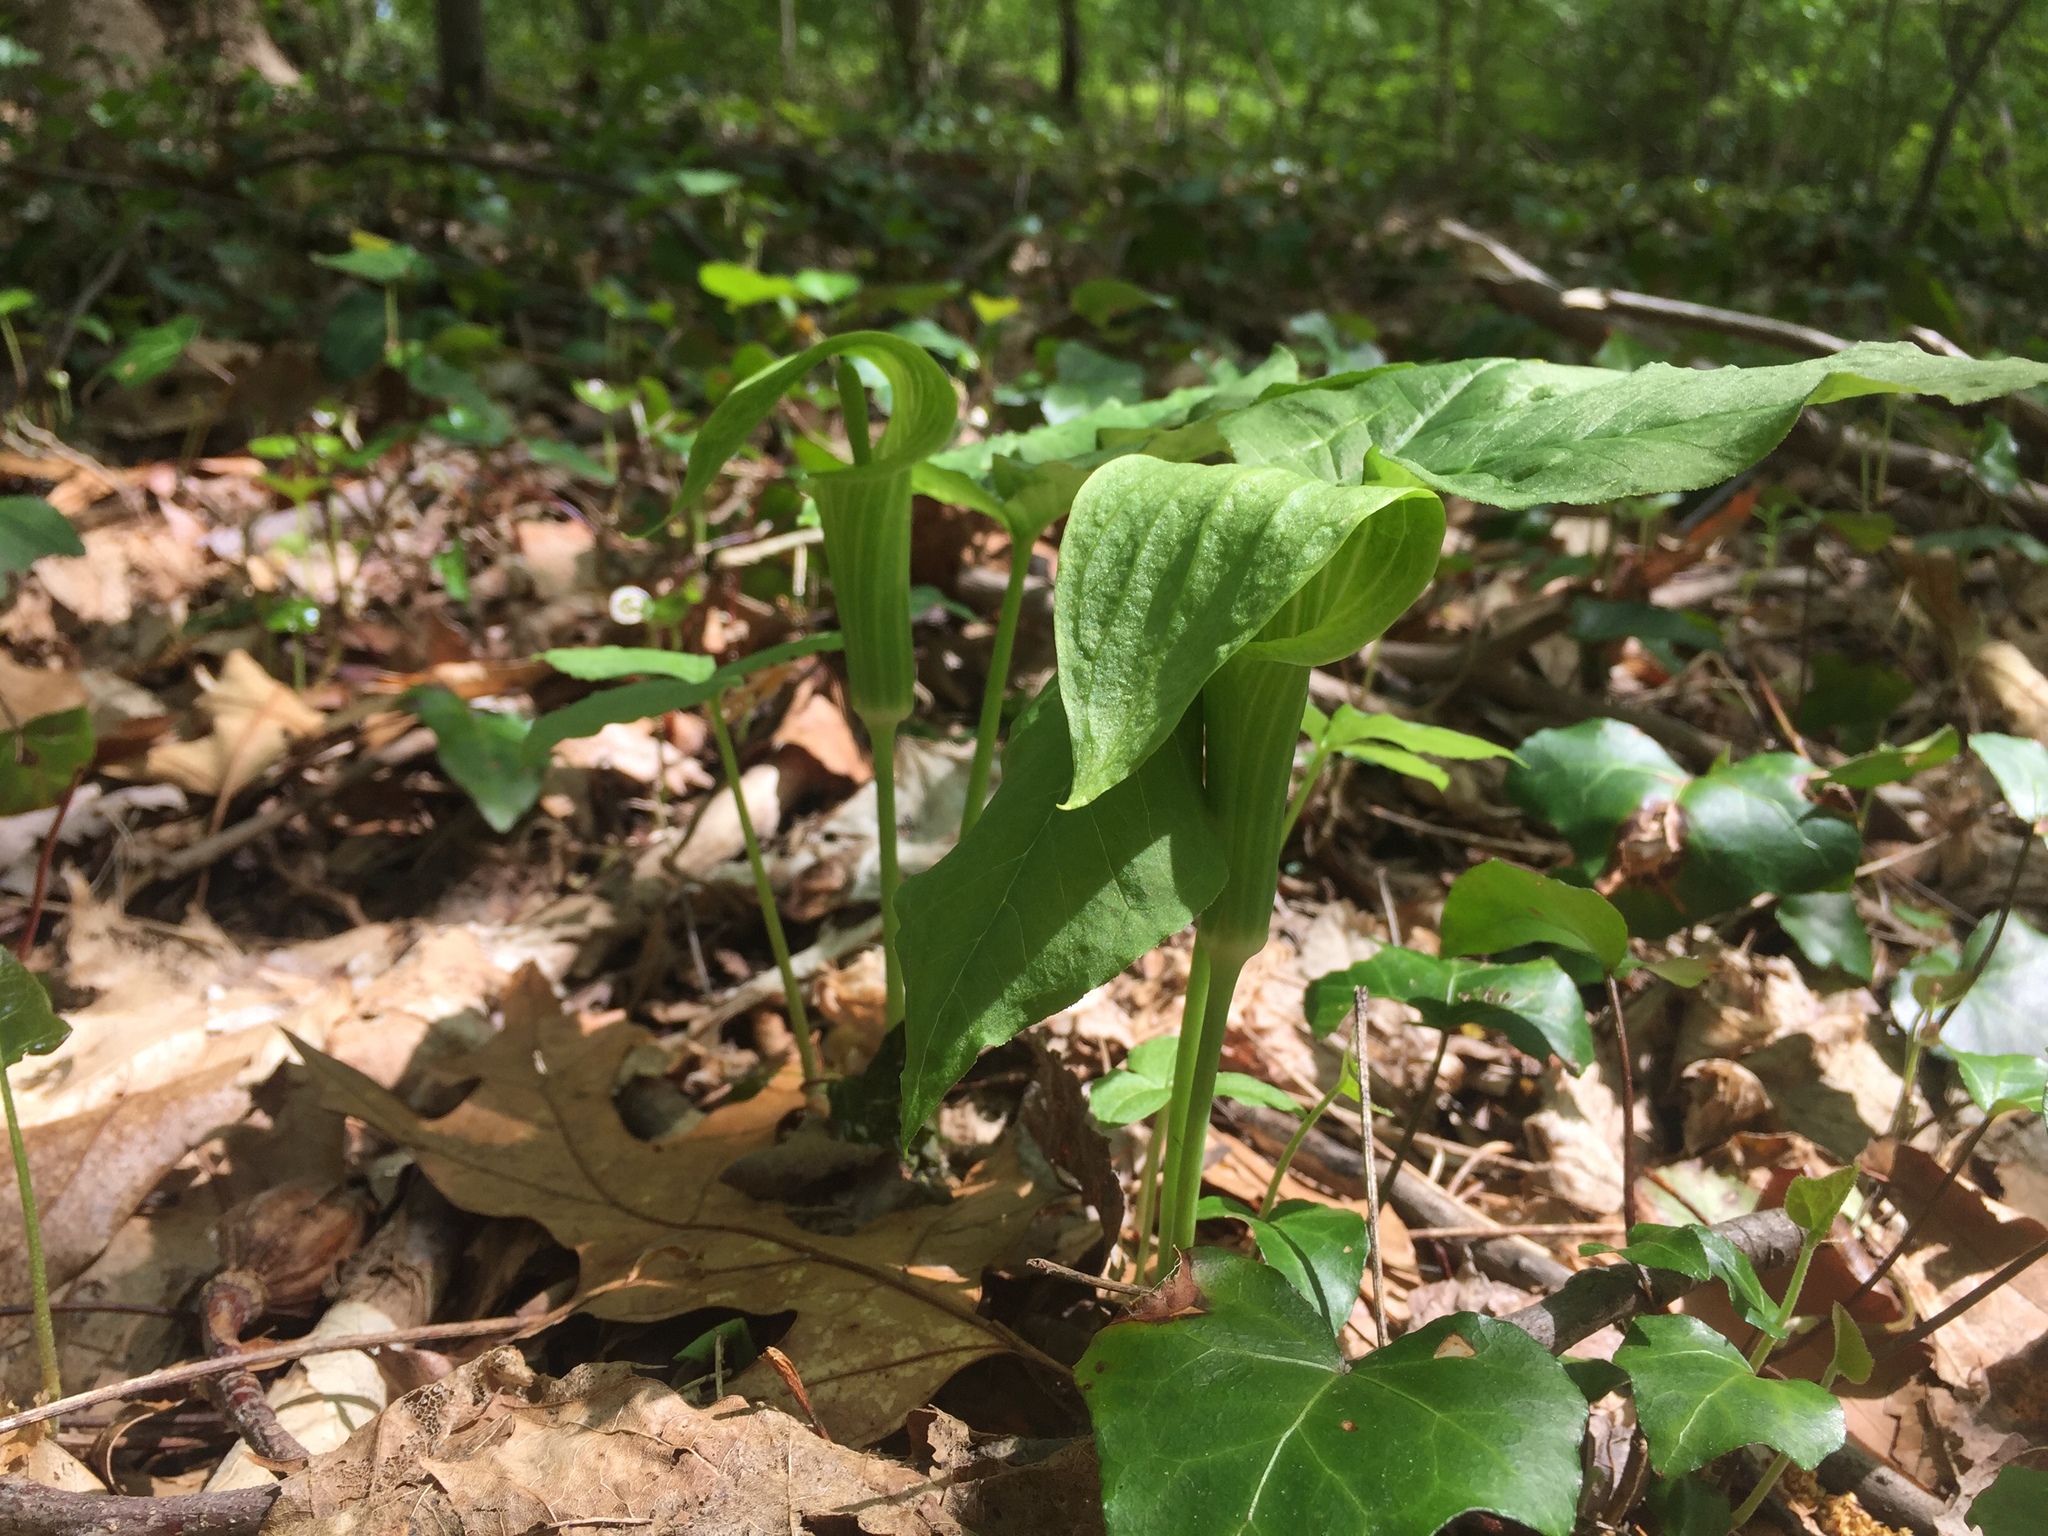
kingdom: Plantae
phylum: Tracheophyta
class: Liliopsida
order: Alismatales
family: Araceae
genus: Arisaema
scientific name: Arisaema triphyllum
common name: Jack-in-the-pulpit
